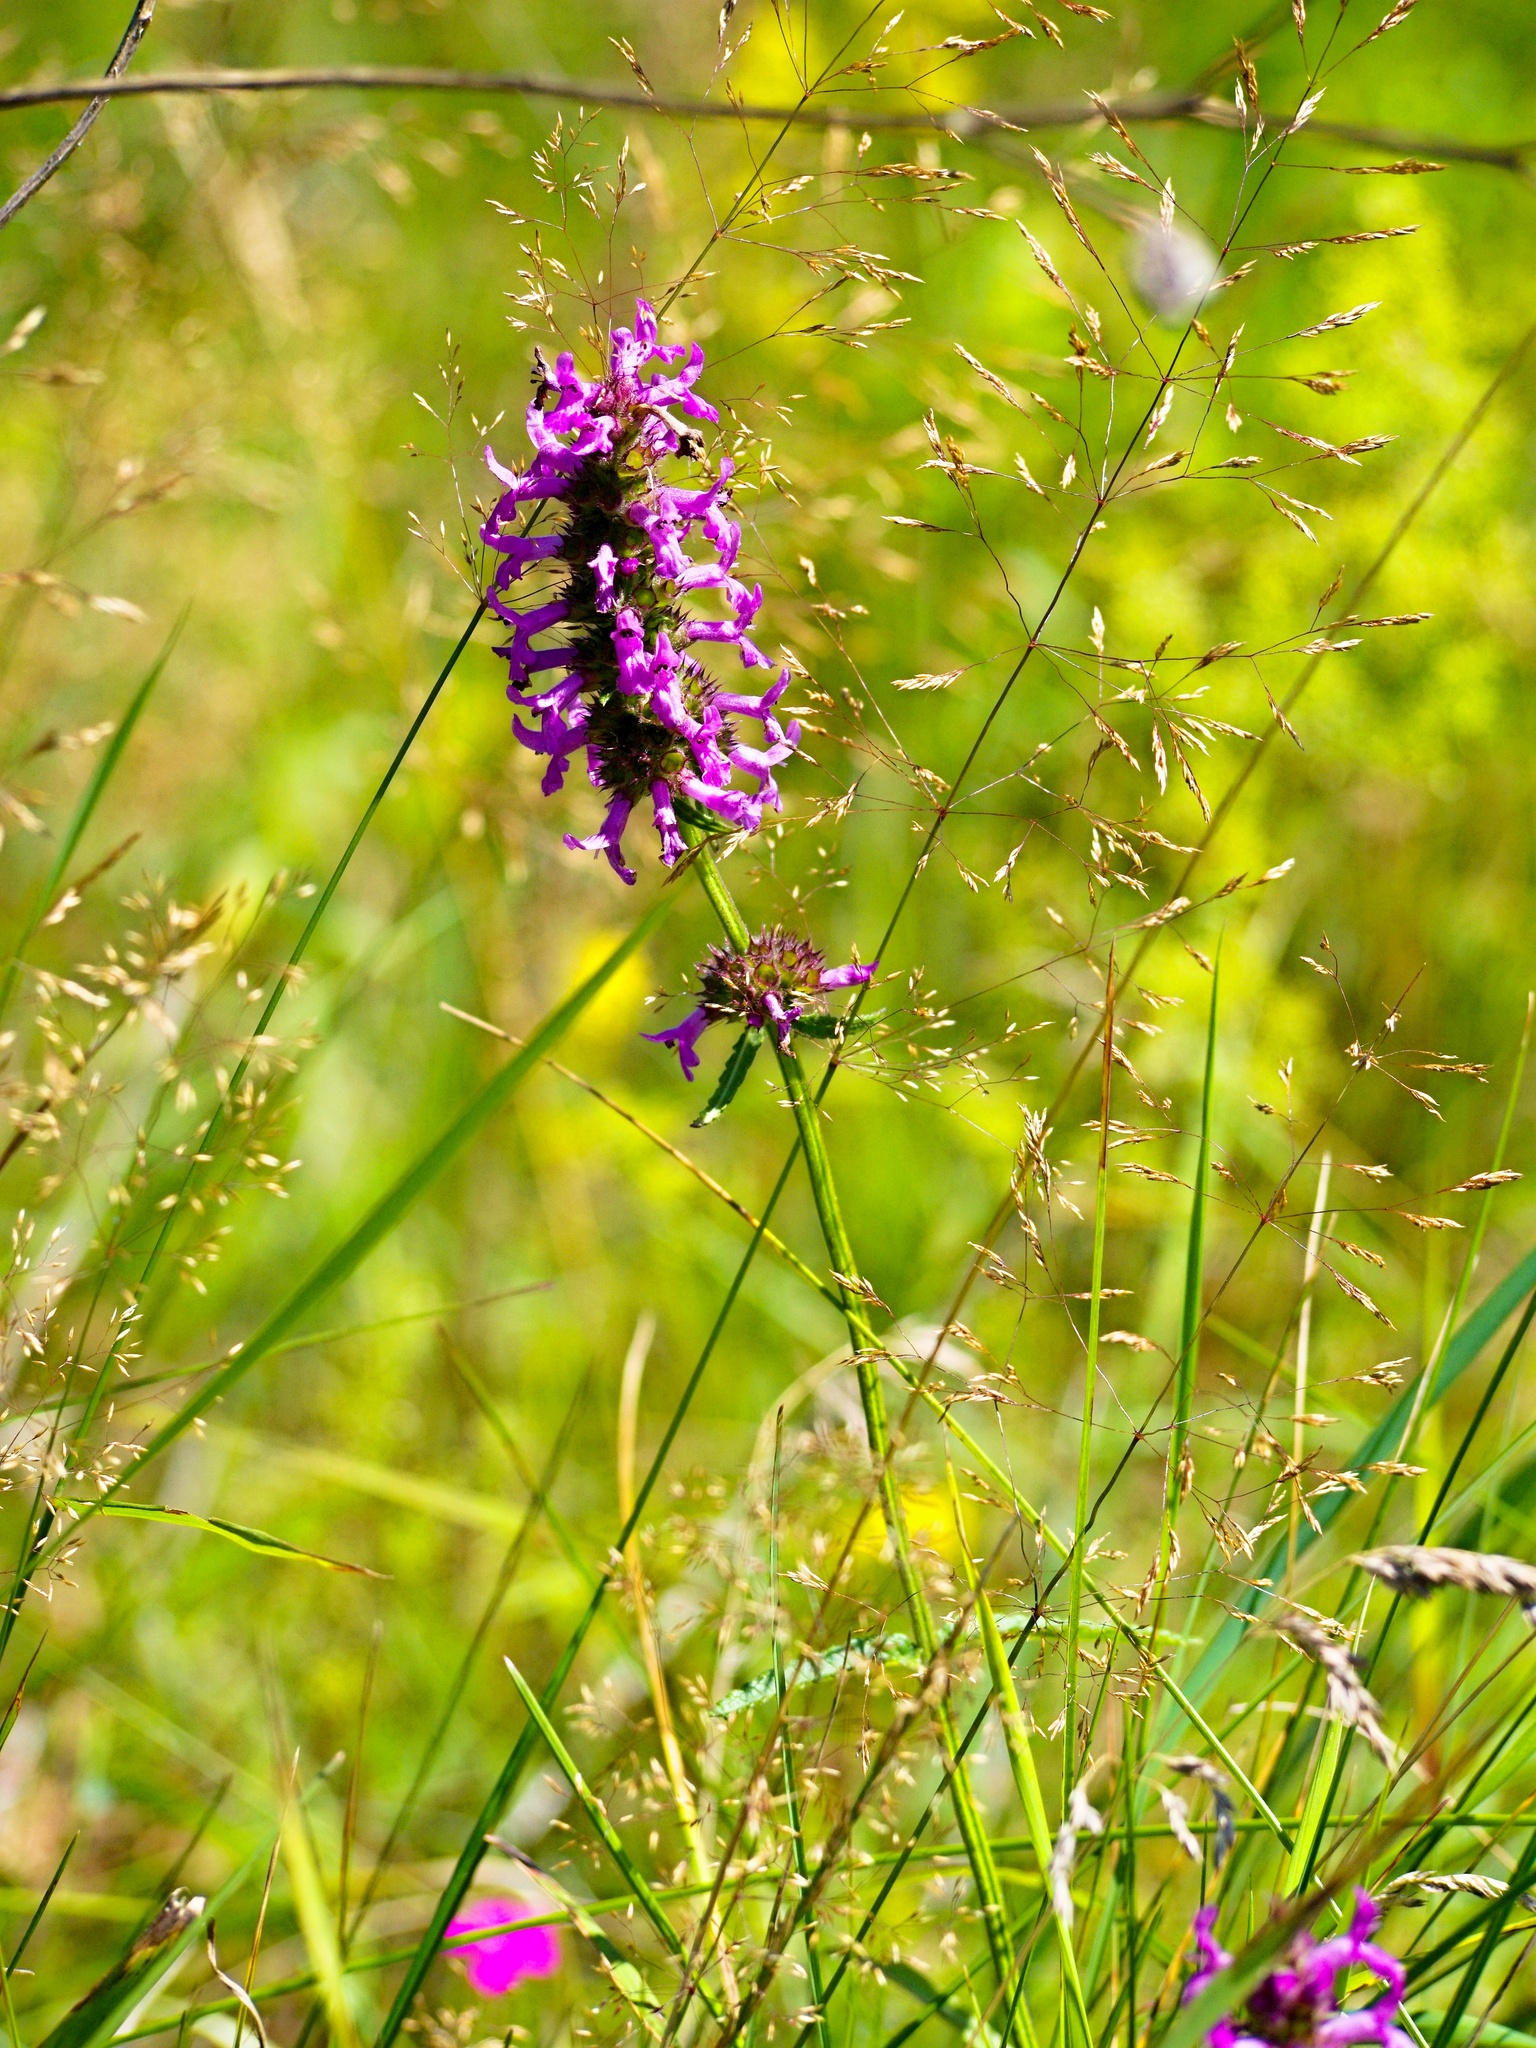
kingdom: Plantae
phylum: Tracheophyta
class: Magnoliopsida
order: Lamiales
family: Lamiaceae
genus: Betonica
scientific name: Betonica officinalis
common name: Bishop's-wort
